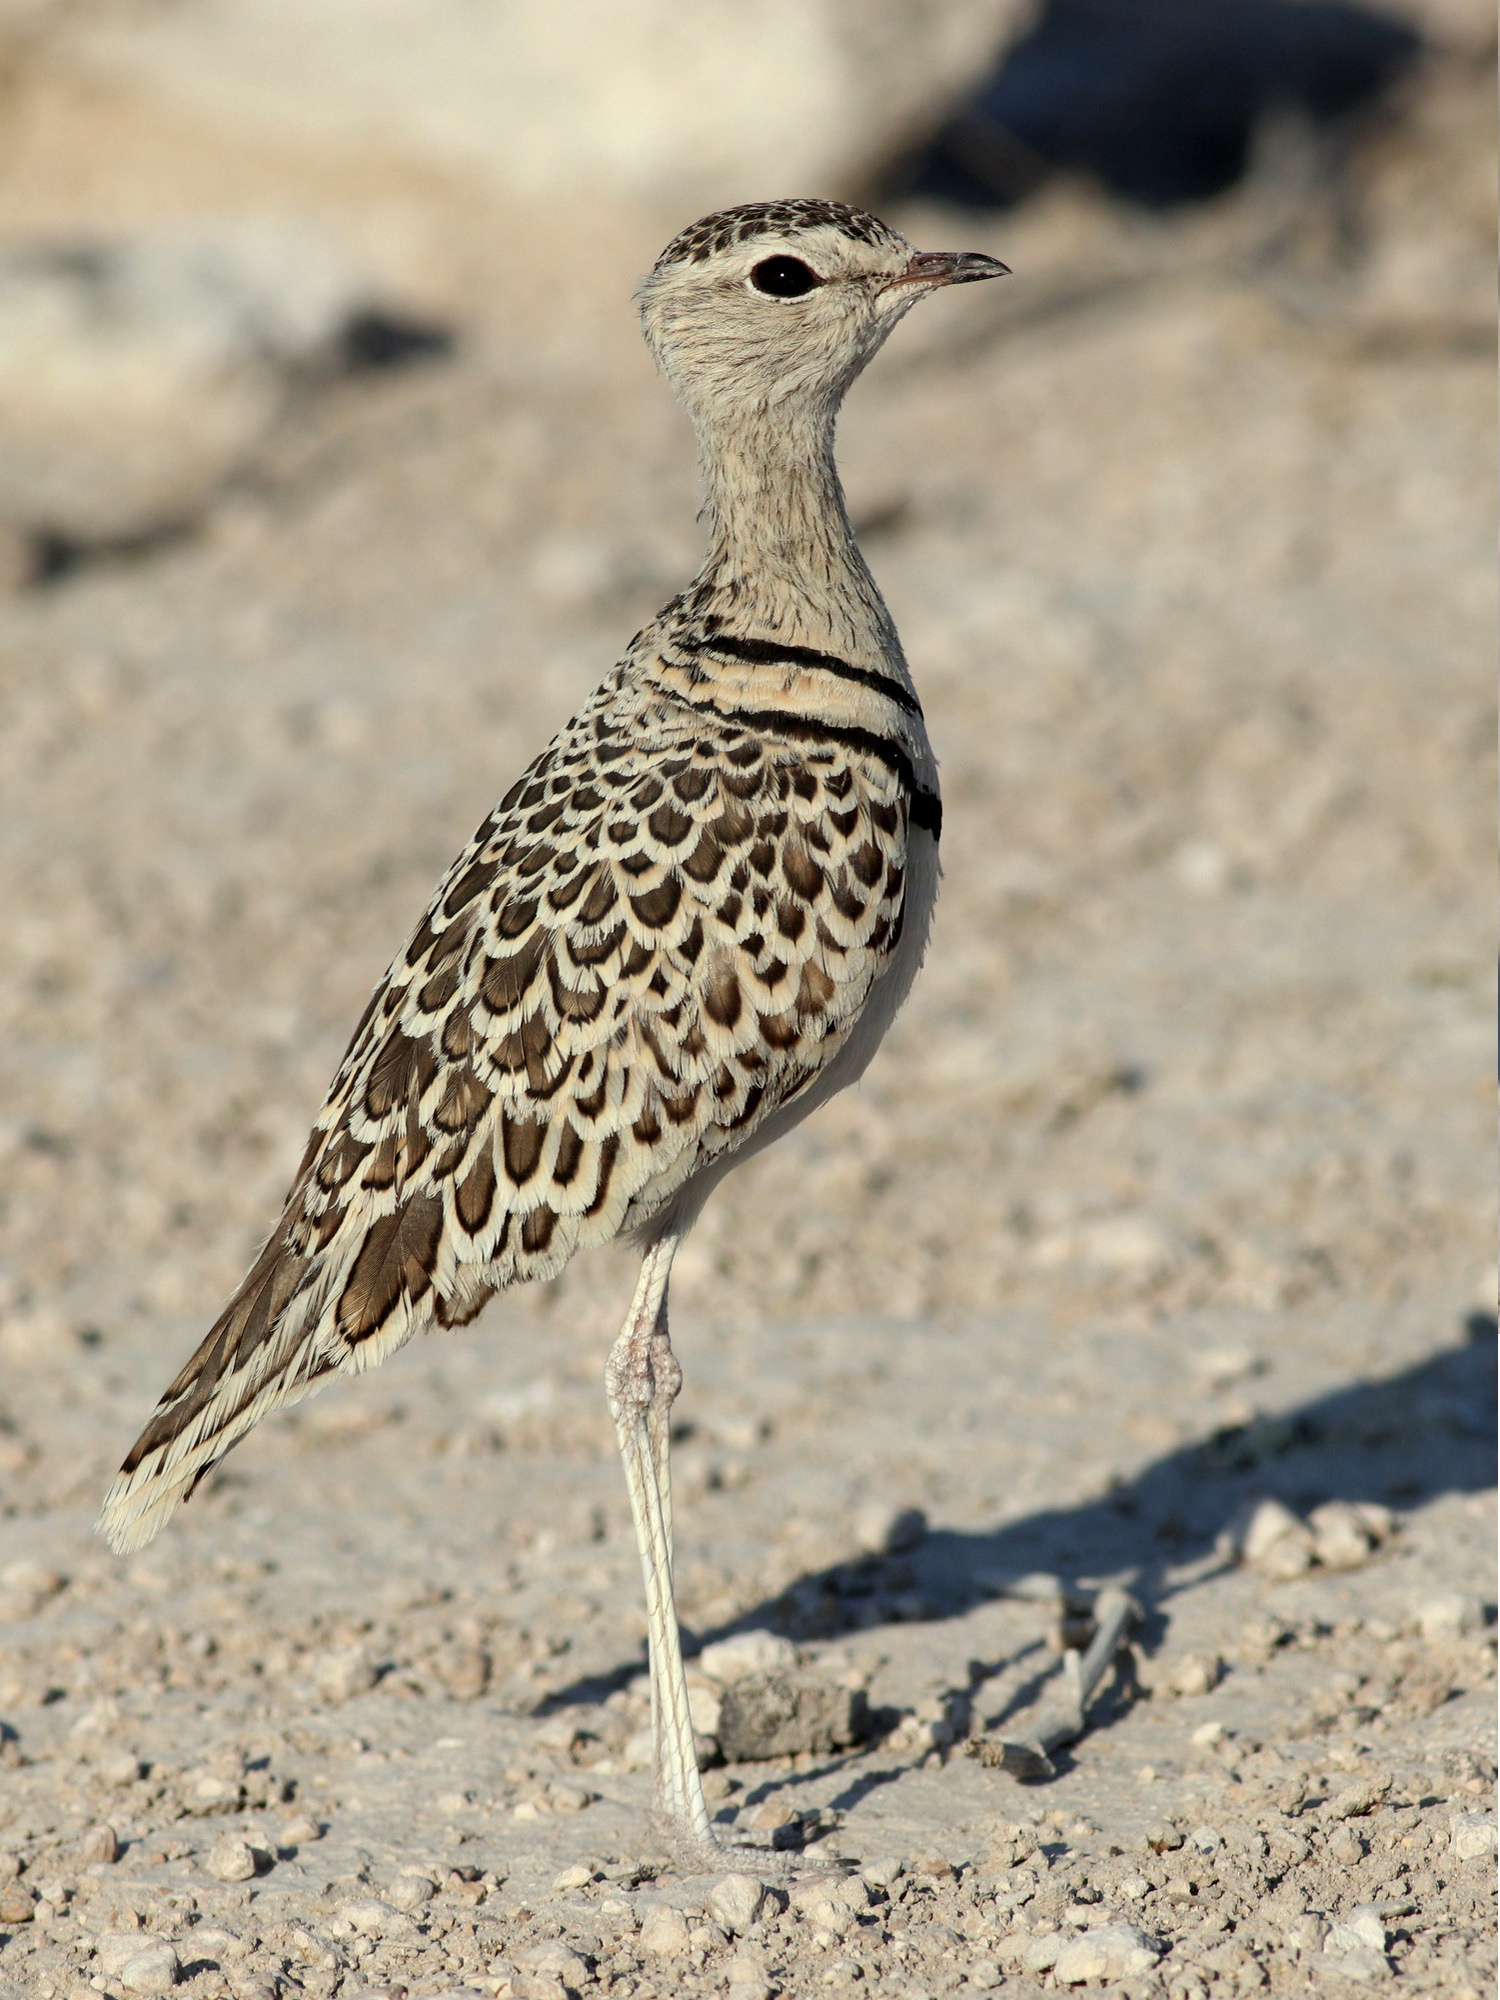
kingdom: Animalia
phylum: Chordata
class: Aves
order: Charadriiformes
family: Glareolidae
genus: Rhinoptilus
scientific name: Rhinoptilus africanus
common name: Double-banded courser
